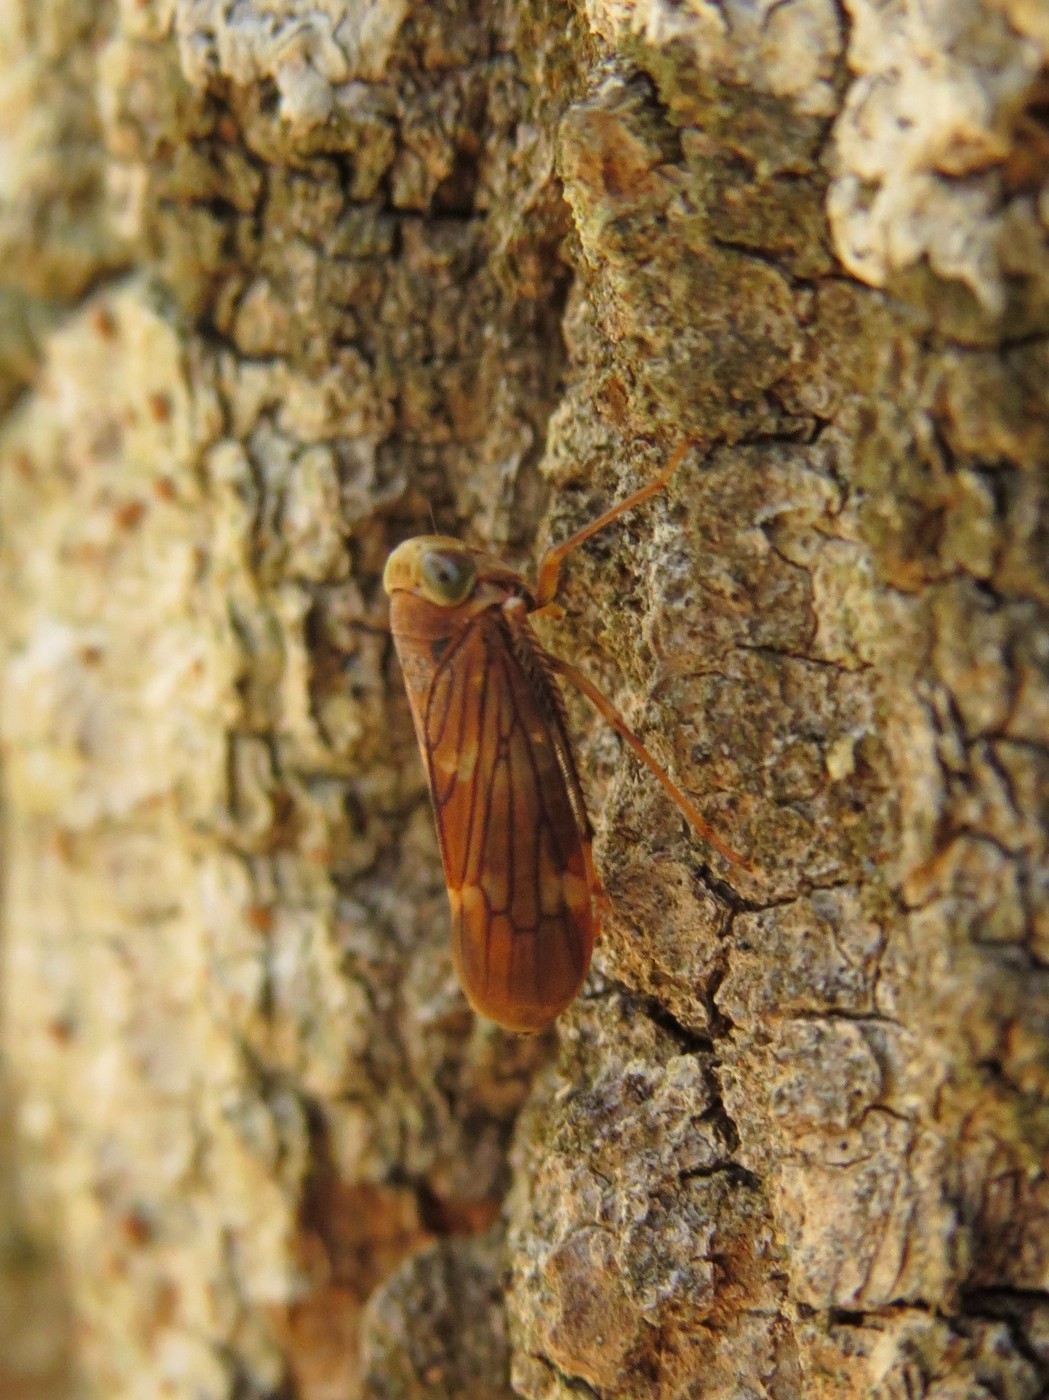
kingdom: Animalia
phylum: Arthropoda
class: Insecta
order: Hemiptera
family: Cicadellidae
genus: Jikradia
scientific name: Jikradia olitoria
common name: Coppery leafhopper
